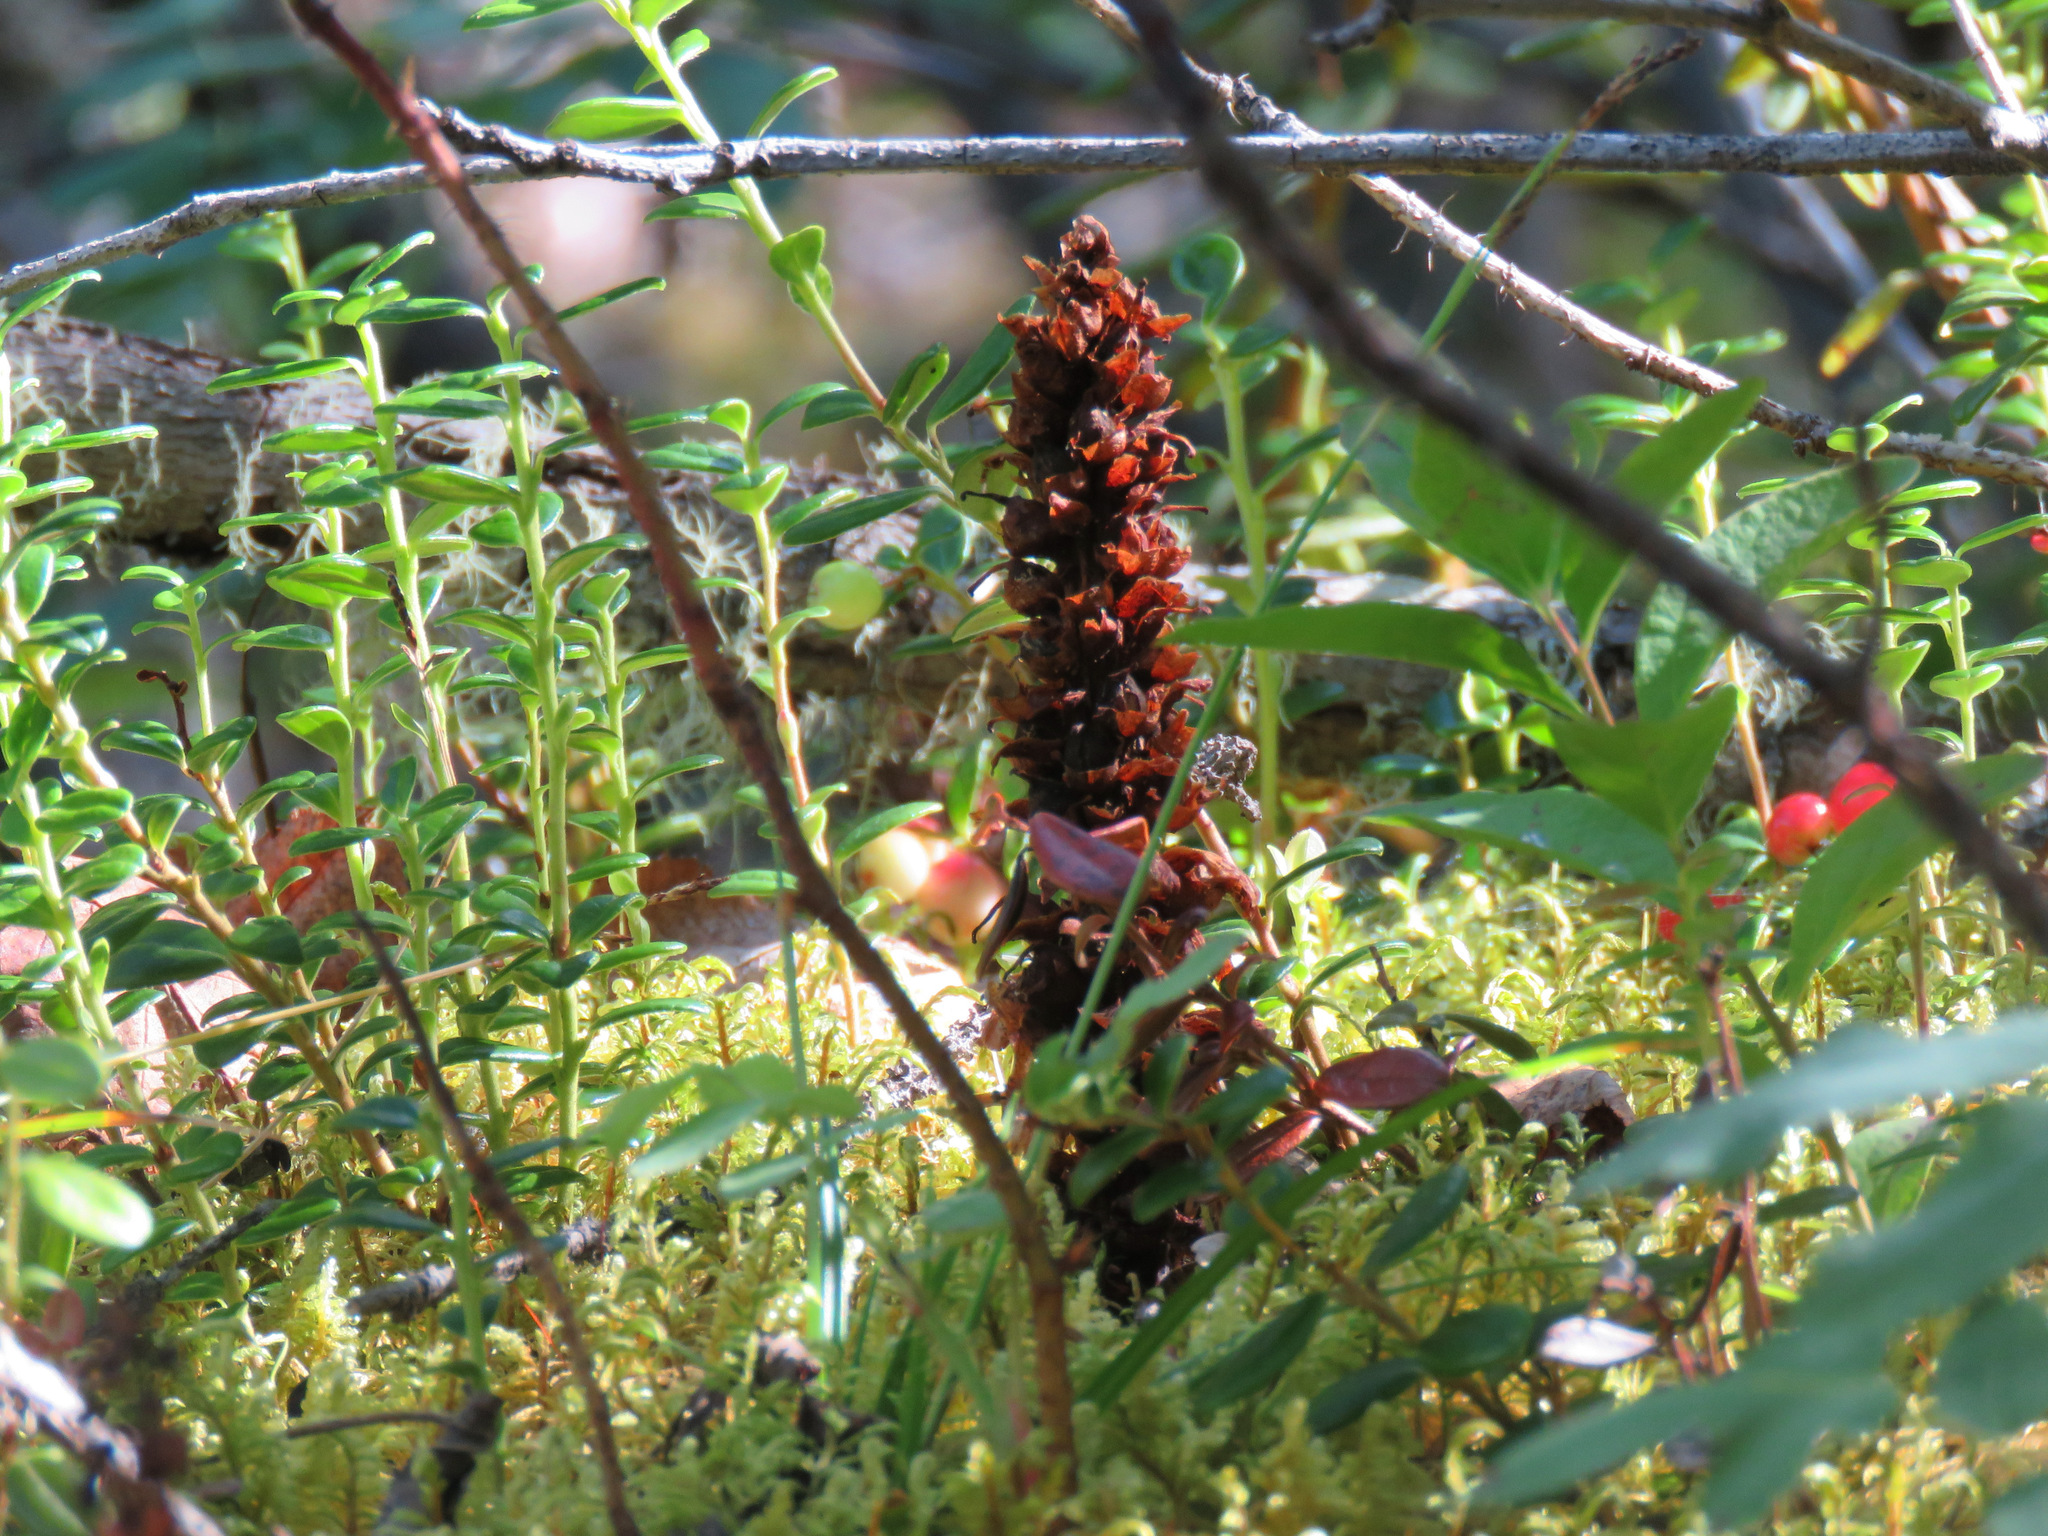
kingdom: Plantae
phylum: Tracheophyta
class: Magnoliopsida
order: Lamiales
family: Orobanchaceae
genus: Boschniakia
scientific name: Boschniakia rossica
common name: Poque
